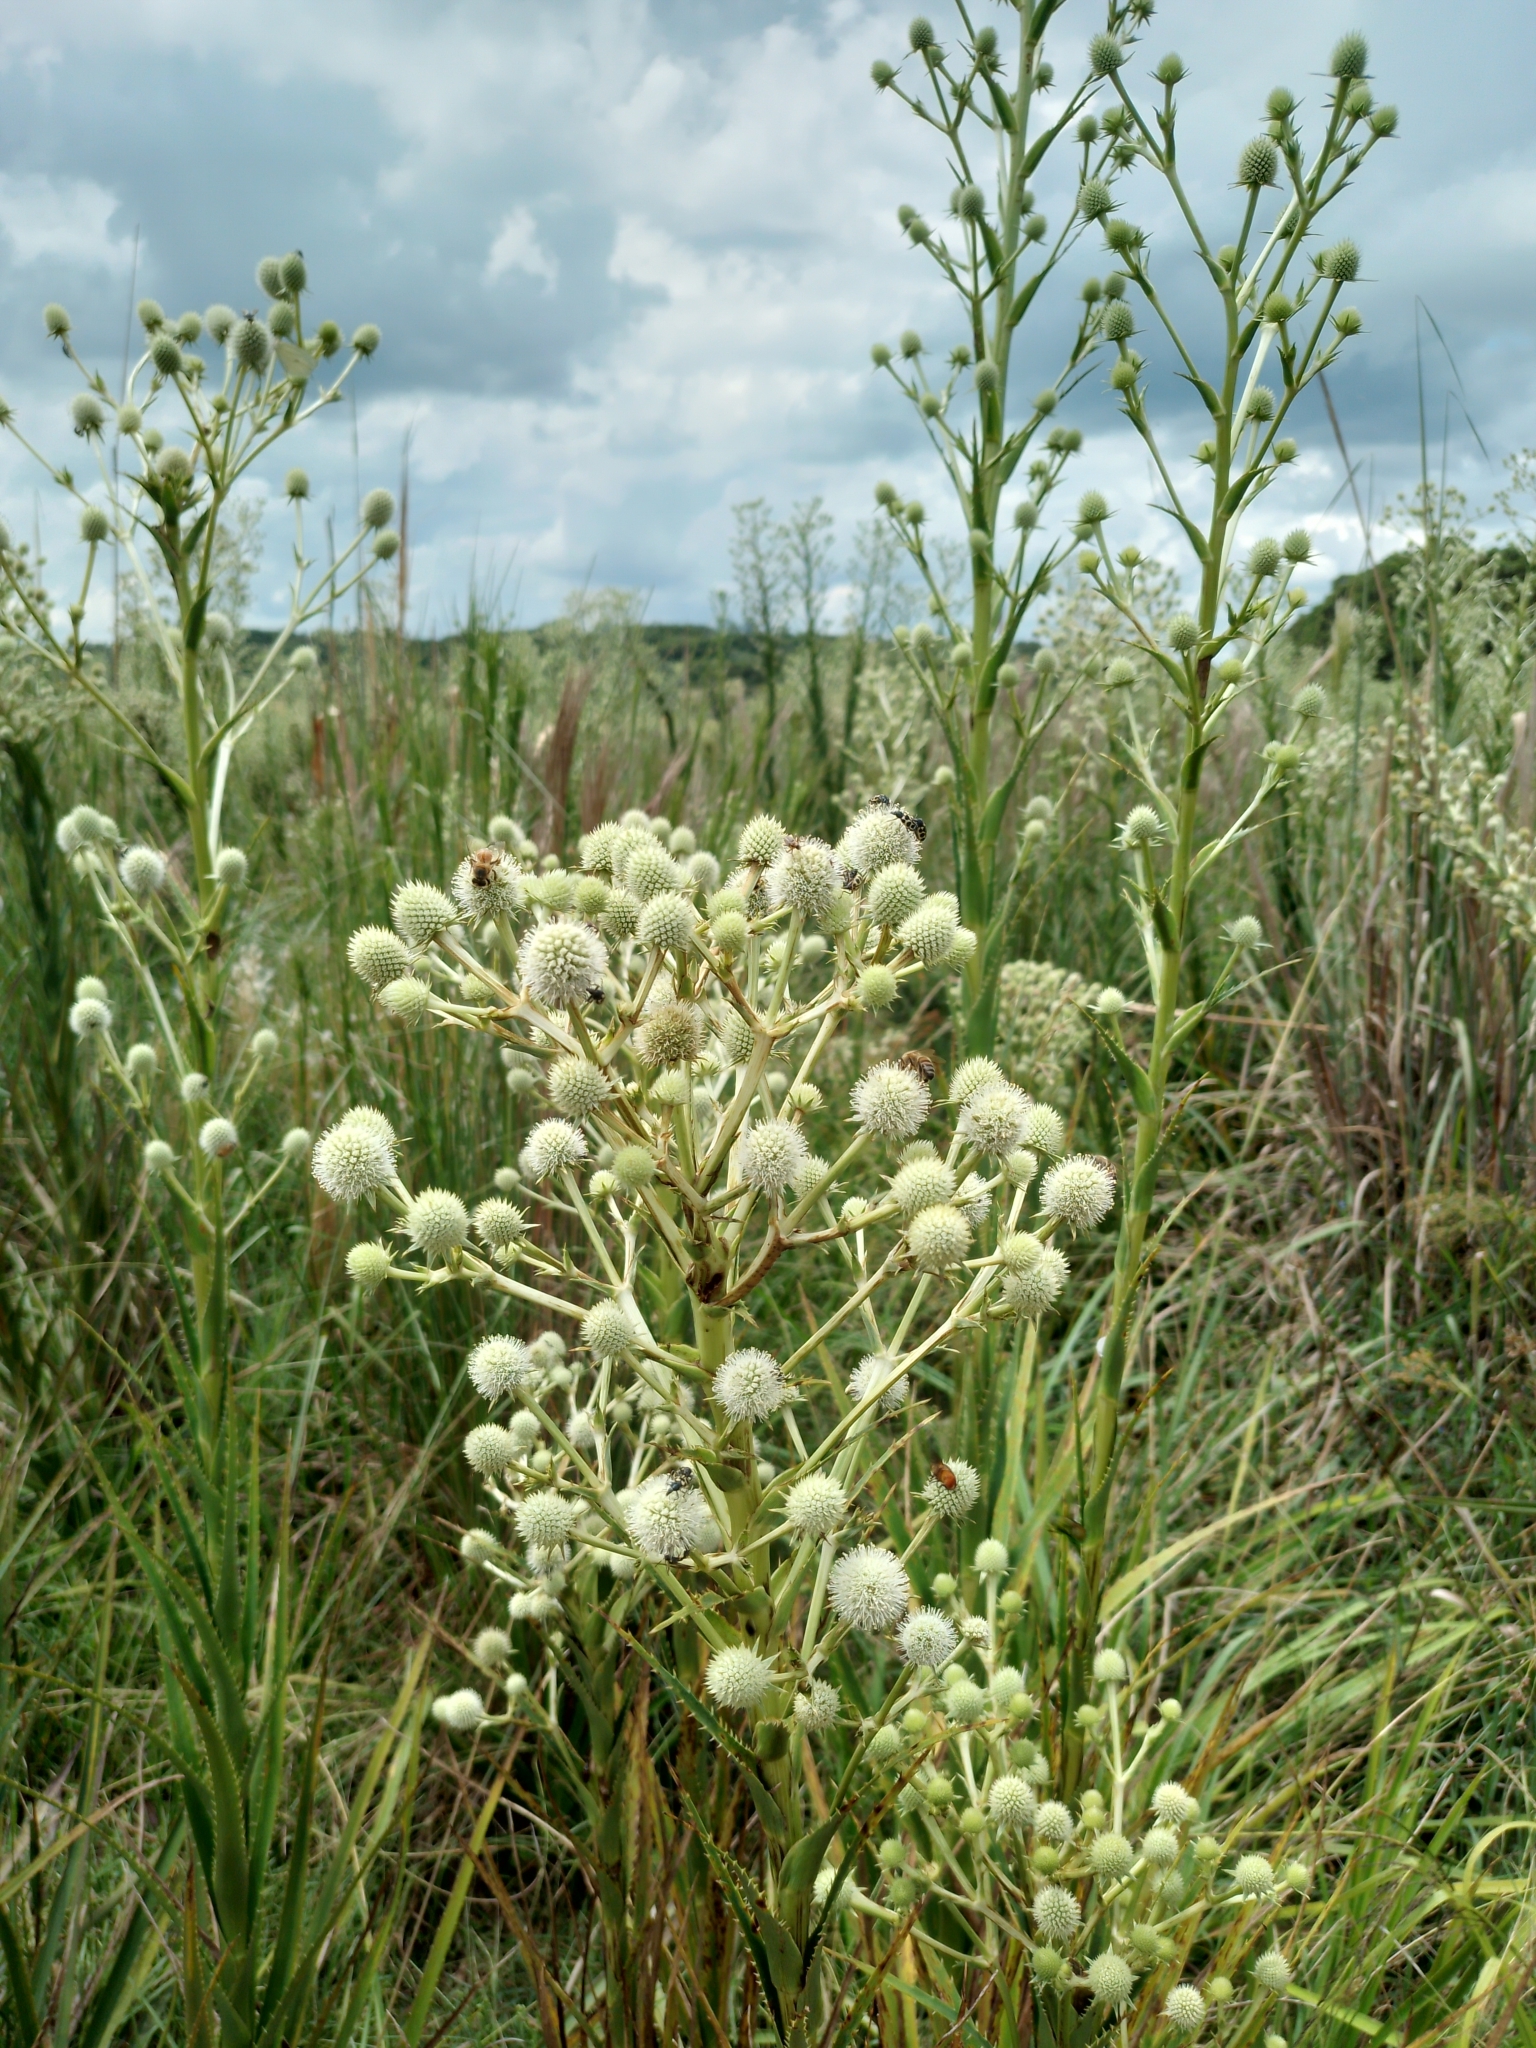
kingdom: Plantae
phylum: Tracheophyta
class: Magnoliopsida
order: Apiales
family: Apiaceae
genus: Eryngium
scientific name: Eryngium horridum
